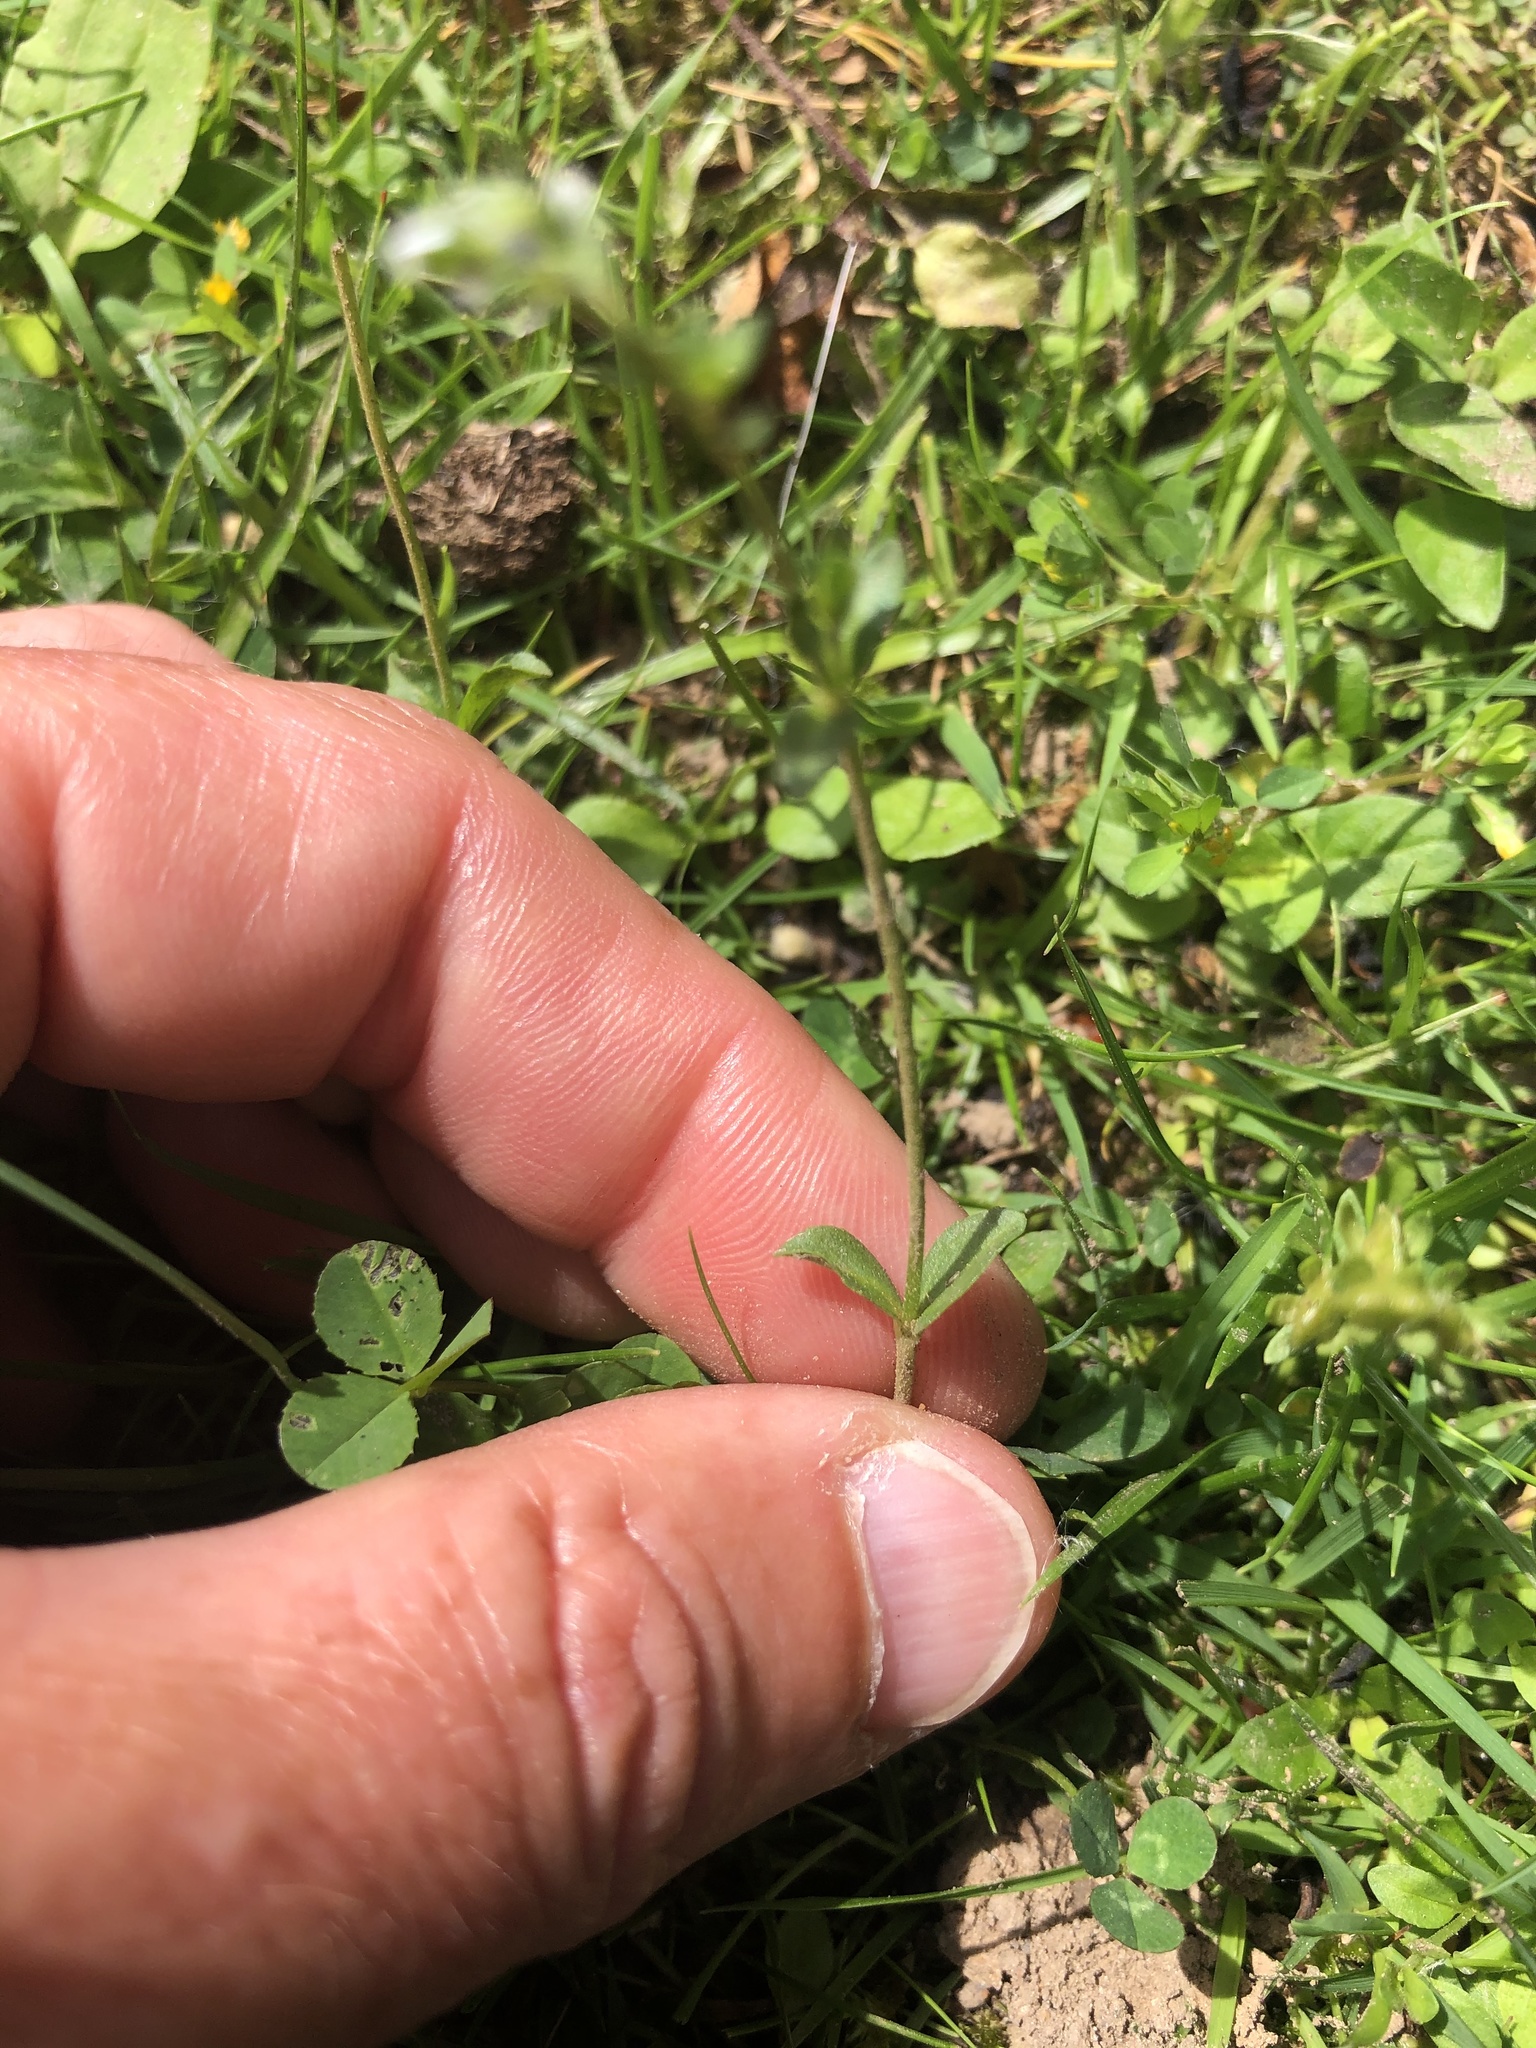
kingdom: Plantae
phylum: Tracheophyta
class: Magnoliopsida
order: Lamiales
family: Plantaginaceae
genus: Veronica
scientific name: Veronica serpyllifolia
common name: Thyme-leaved speedwell
